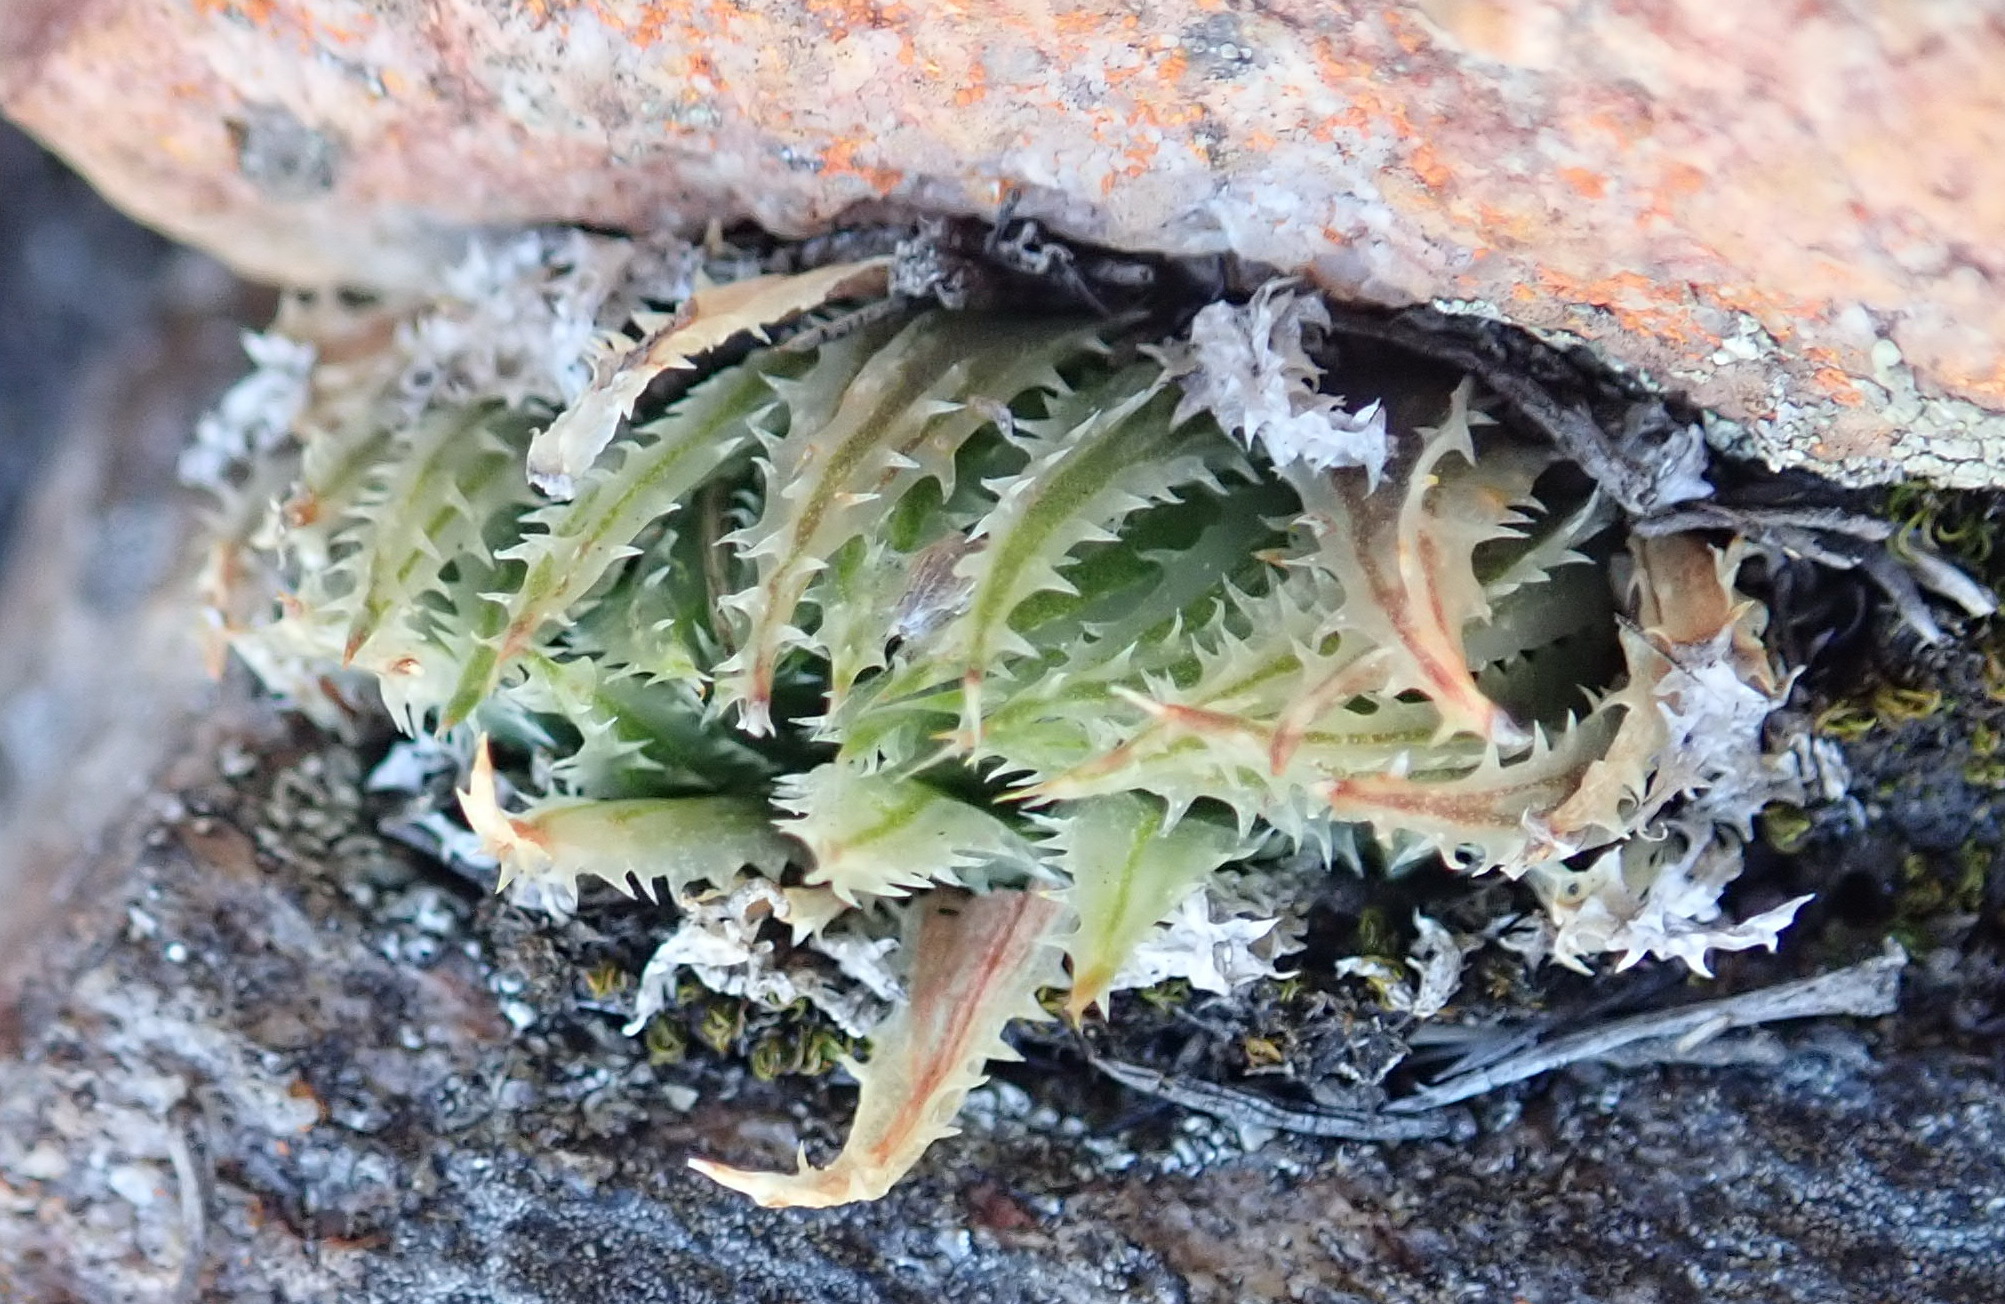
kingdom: Plantae
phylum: Tracheophyta
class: Liliopsida
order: Asparagales
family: Asphodelaceae
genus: Haworthia
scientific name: Haworthia outeniquensis
